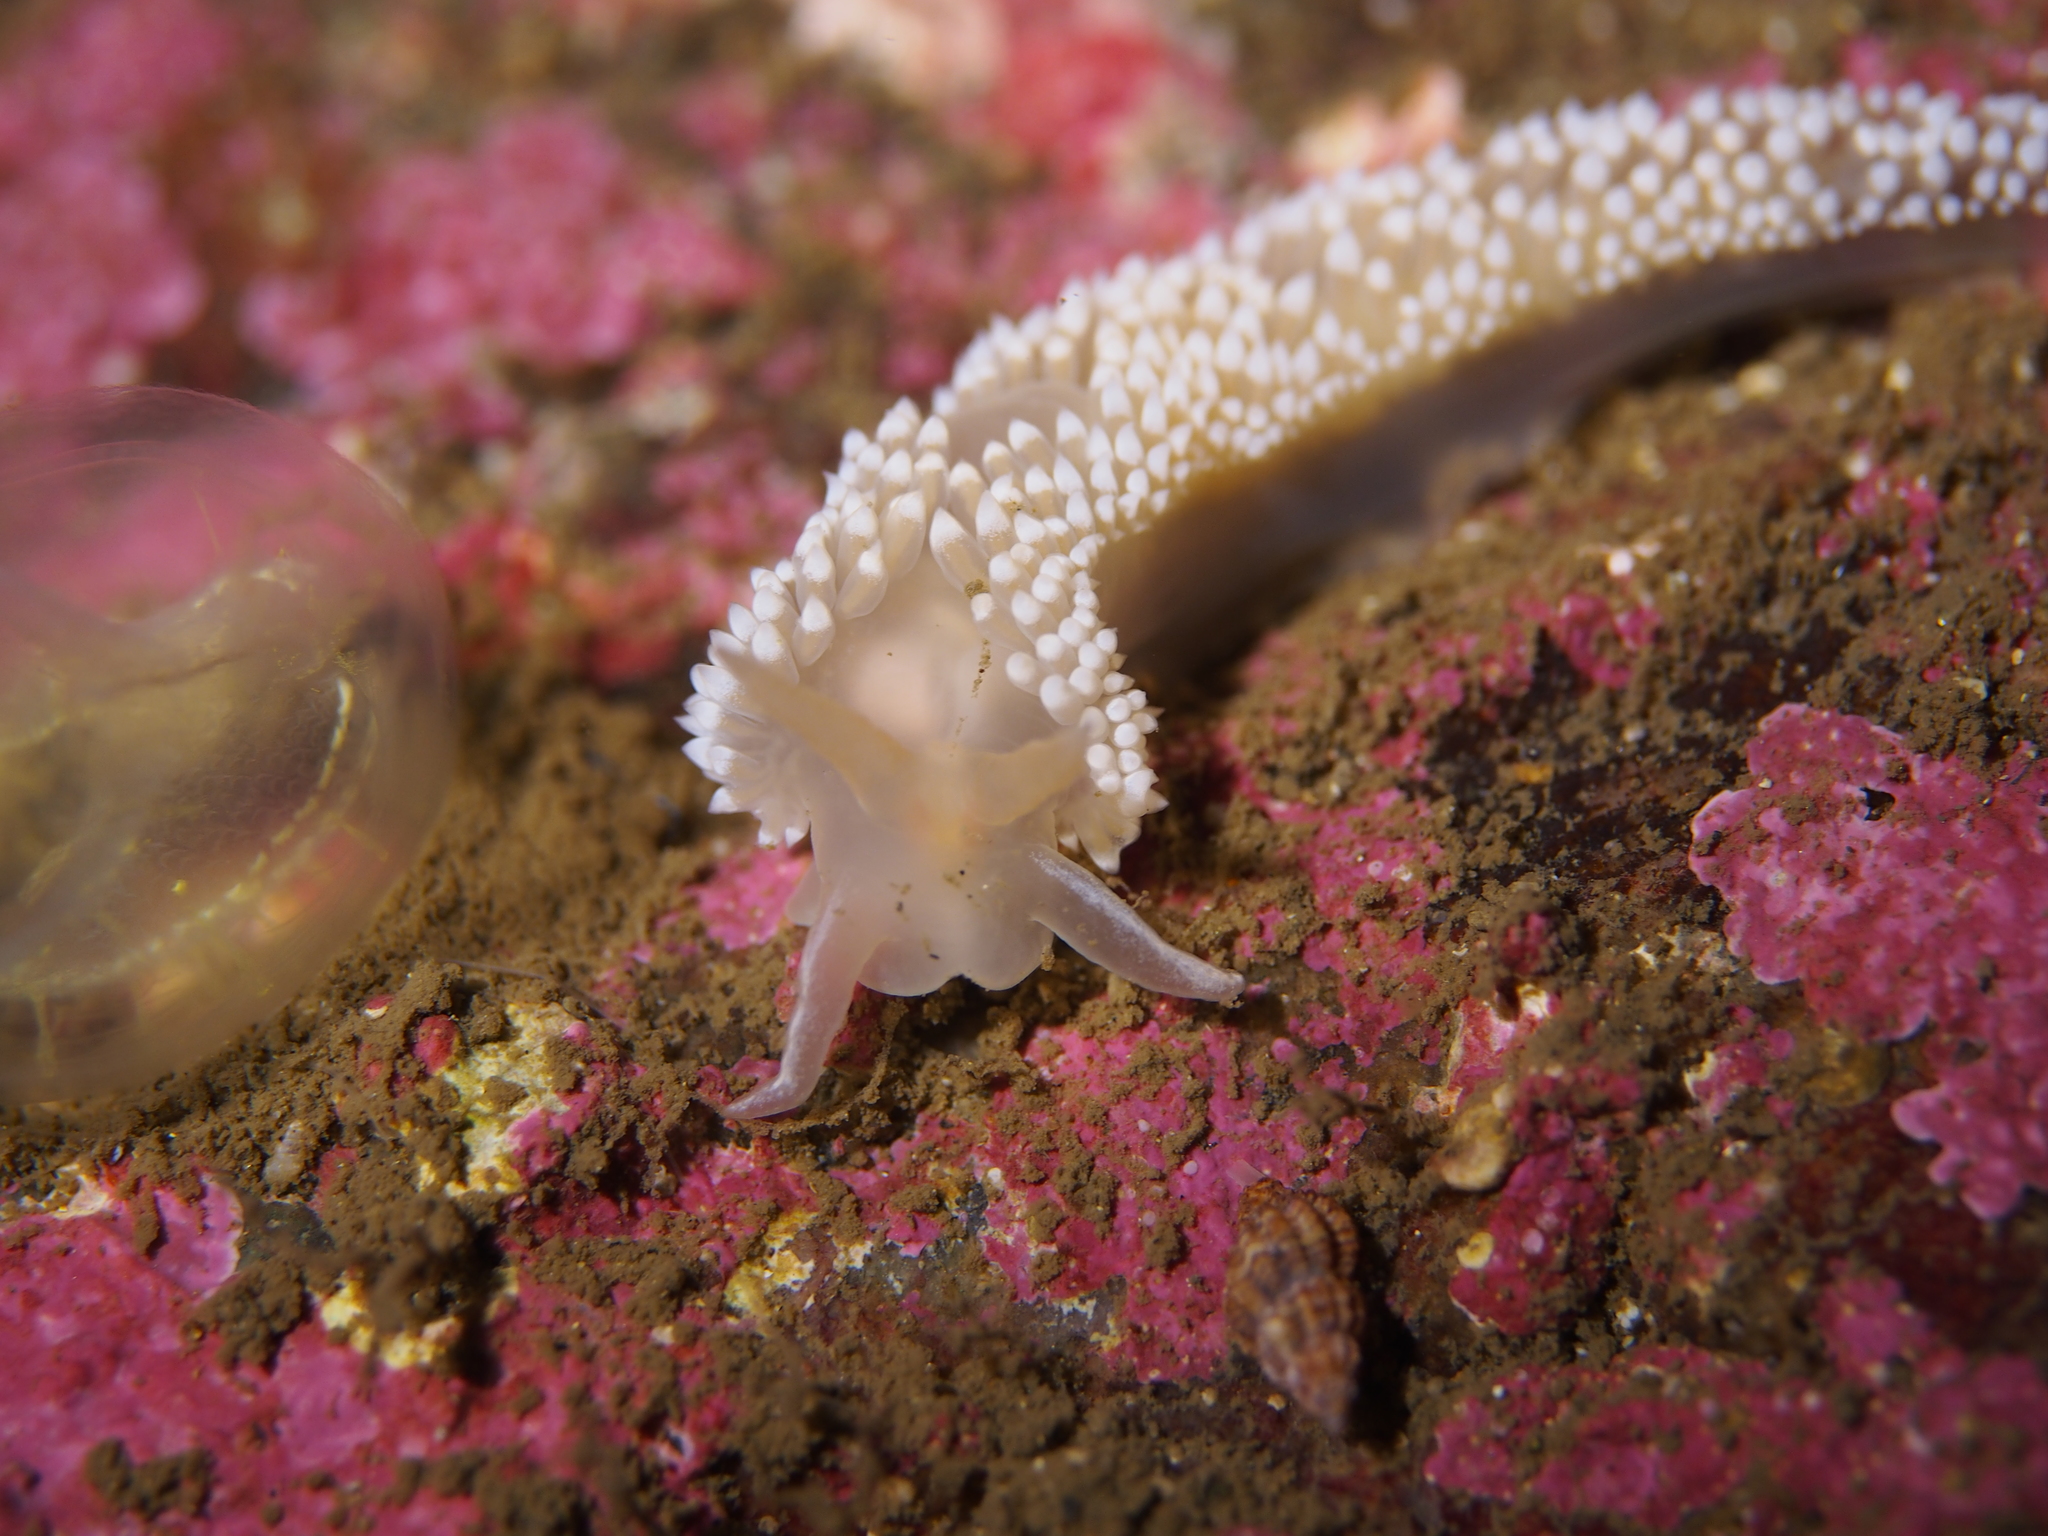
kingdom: Animalia
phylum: Mollusca
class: Gastropoda
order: Nudibranchia
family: Coryphellidae
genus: Coryphella
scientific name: Coryphella verrucosa
